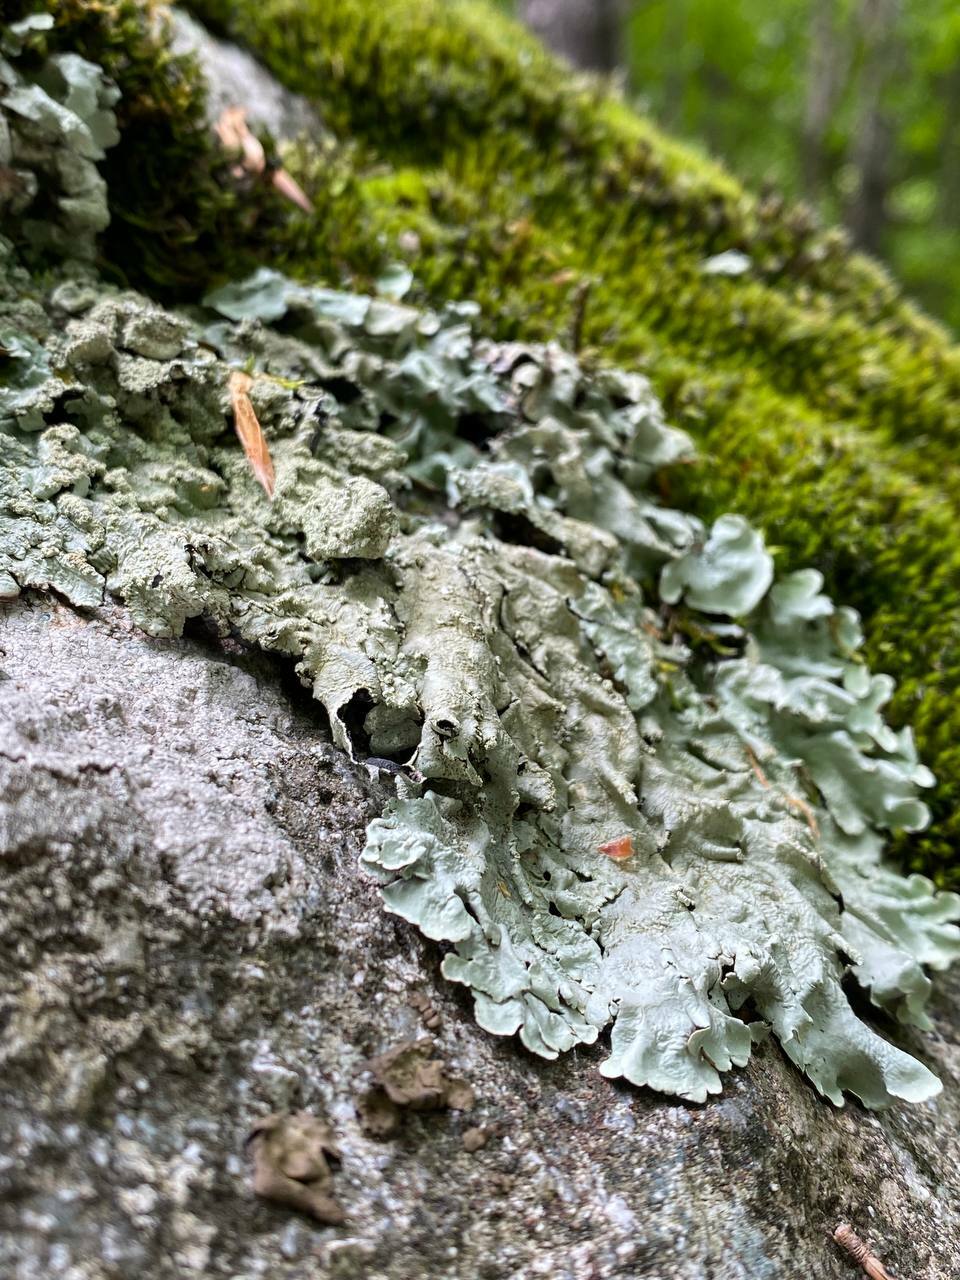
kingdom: Fungi
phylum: Ascomycota
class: Lecanoromycetes
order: Lecanorales
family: Parmeliaceae
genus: Flavoparmelia
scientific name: Flavoparmelia caperata
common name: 40-mile per hour lichen
